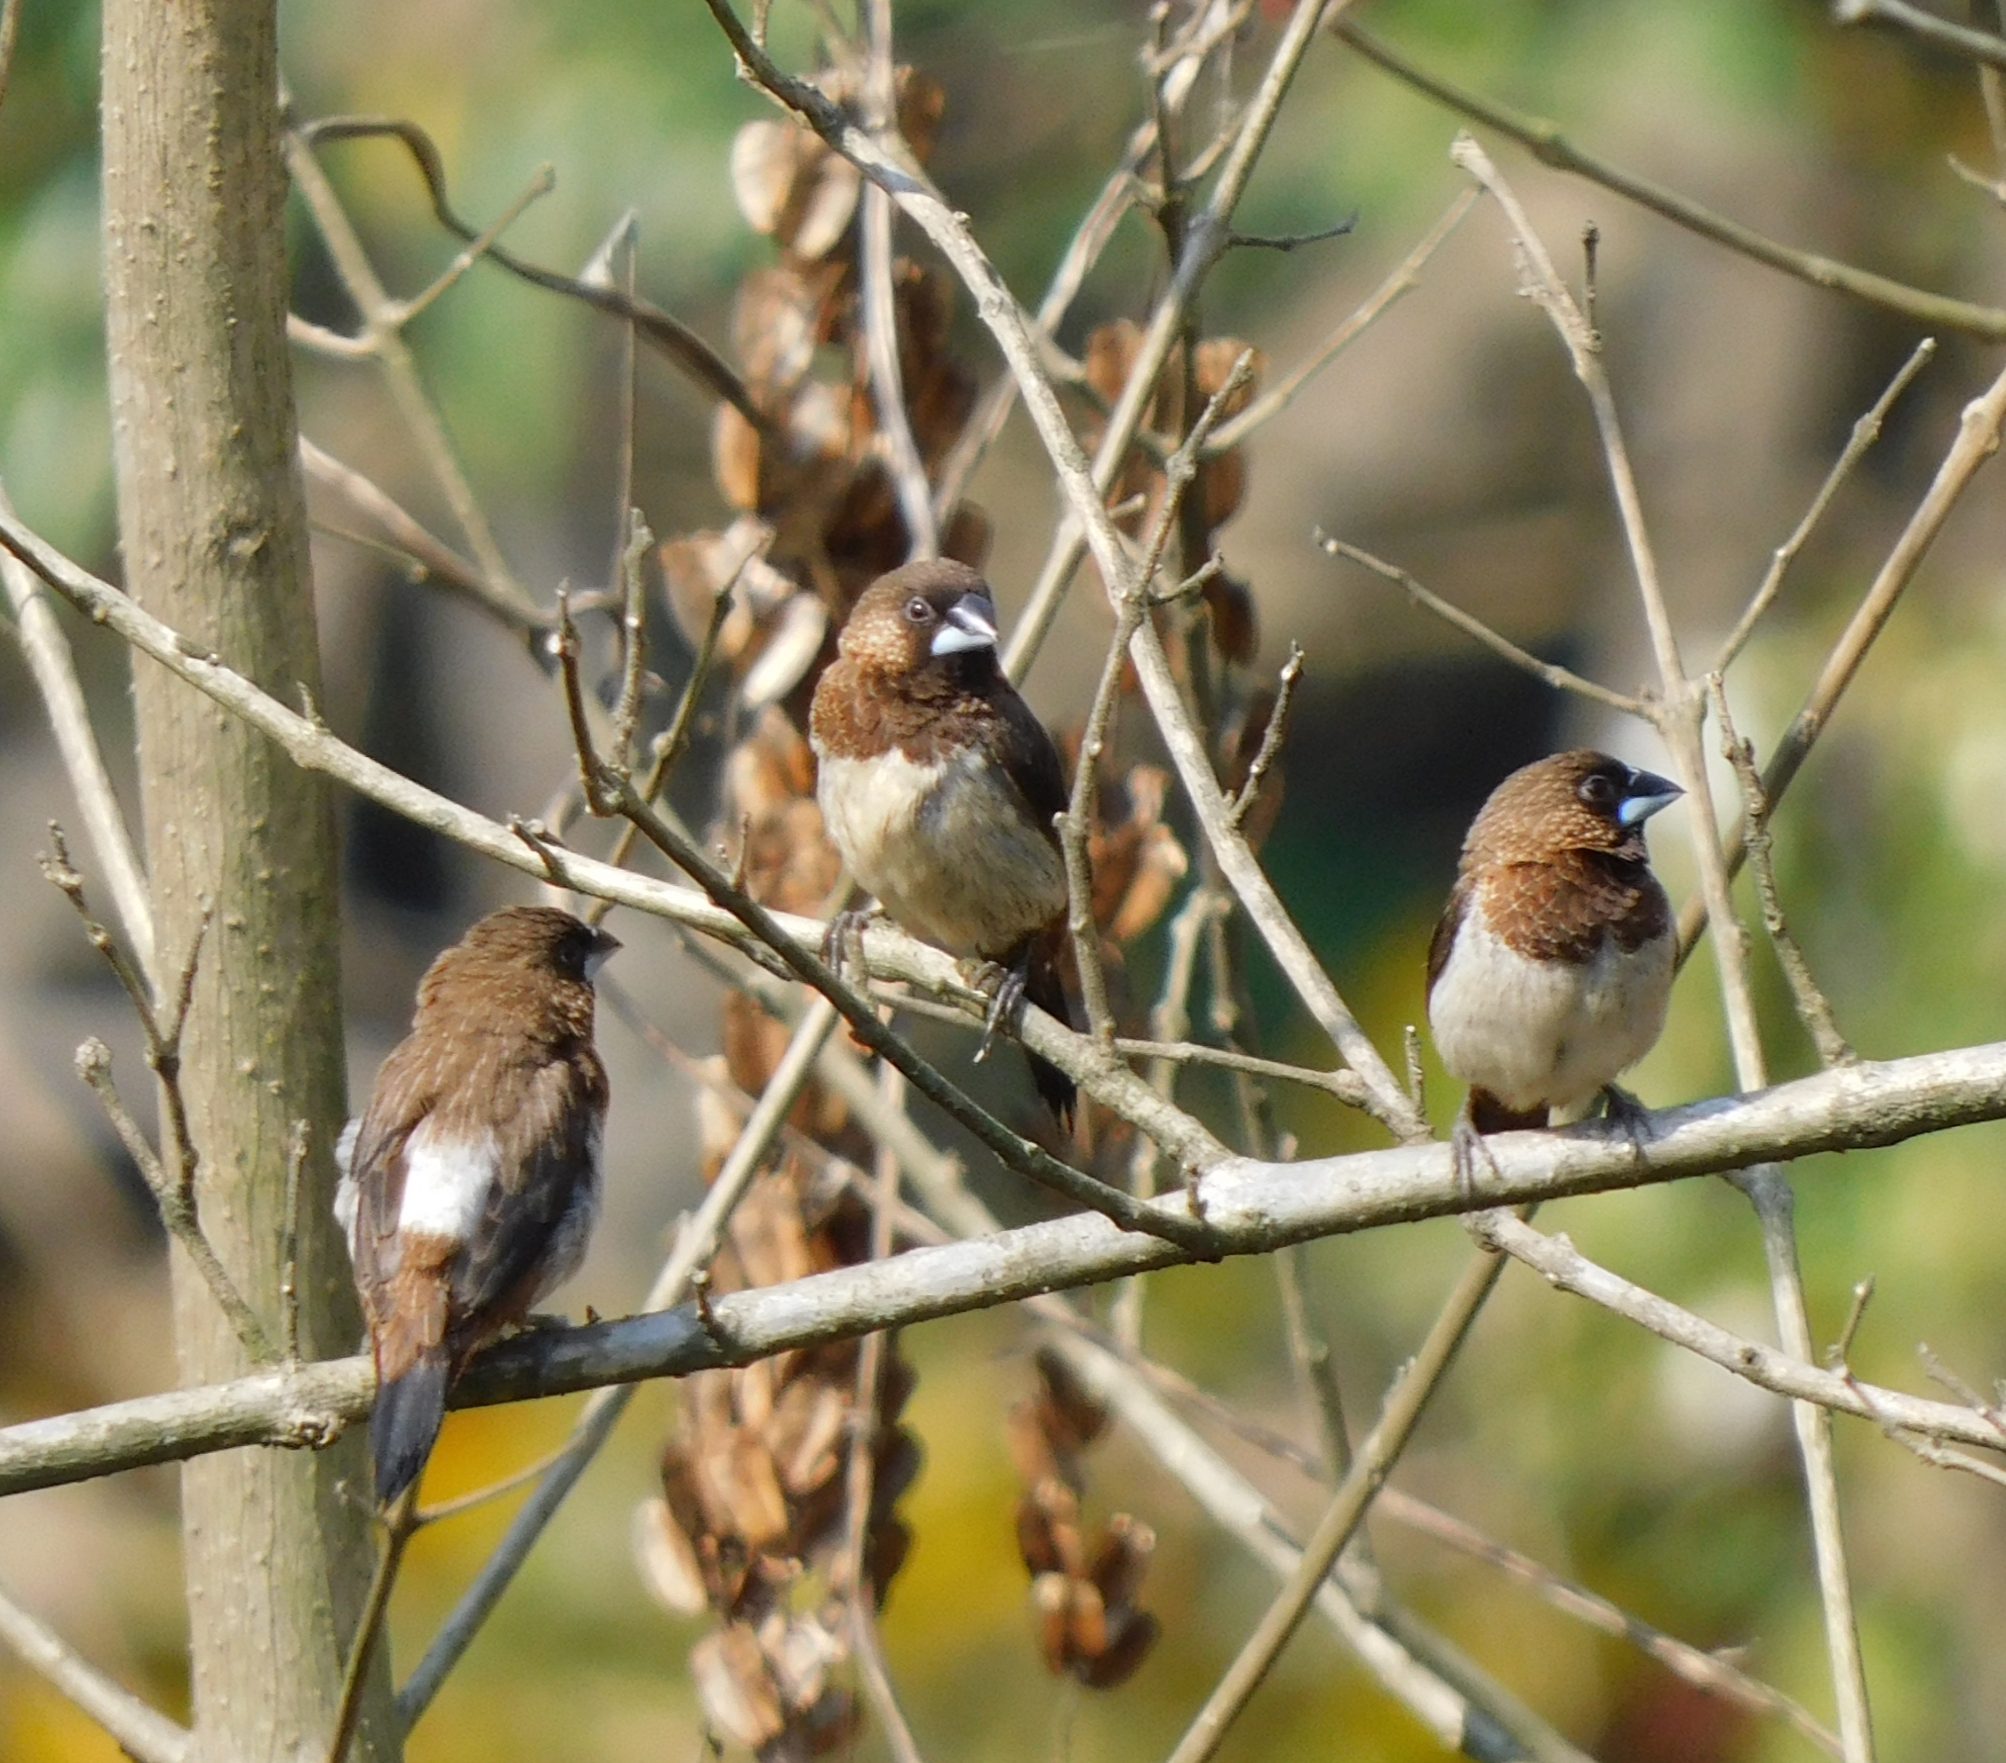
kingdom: Animalia
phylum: Chordata
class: Aves
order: Passeriformes
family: Estrildidae
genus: Lonchura
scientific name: Lonchura striata
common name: White-rumped munia
